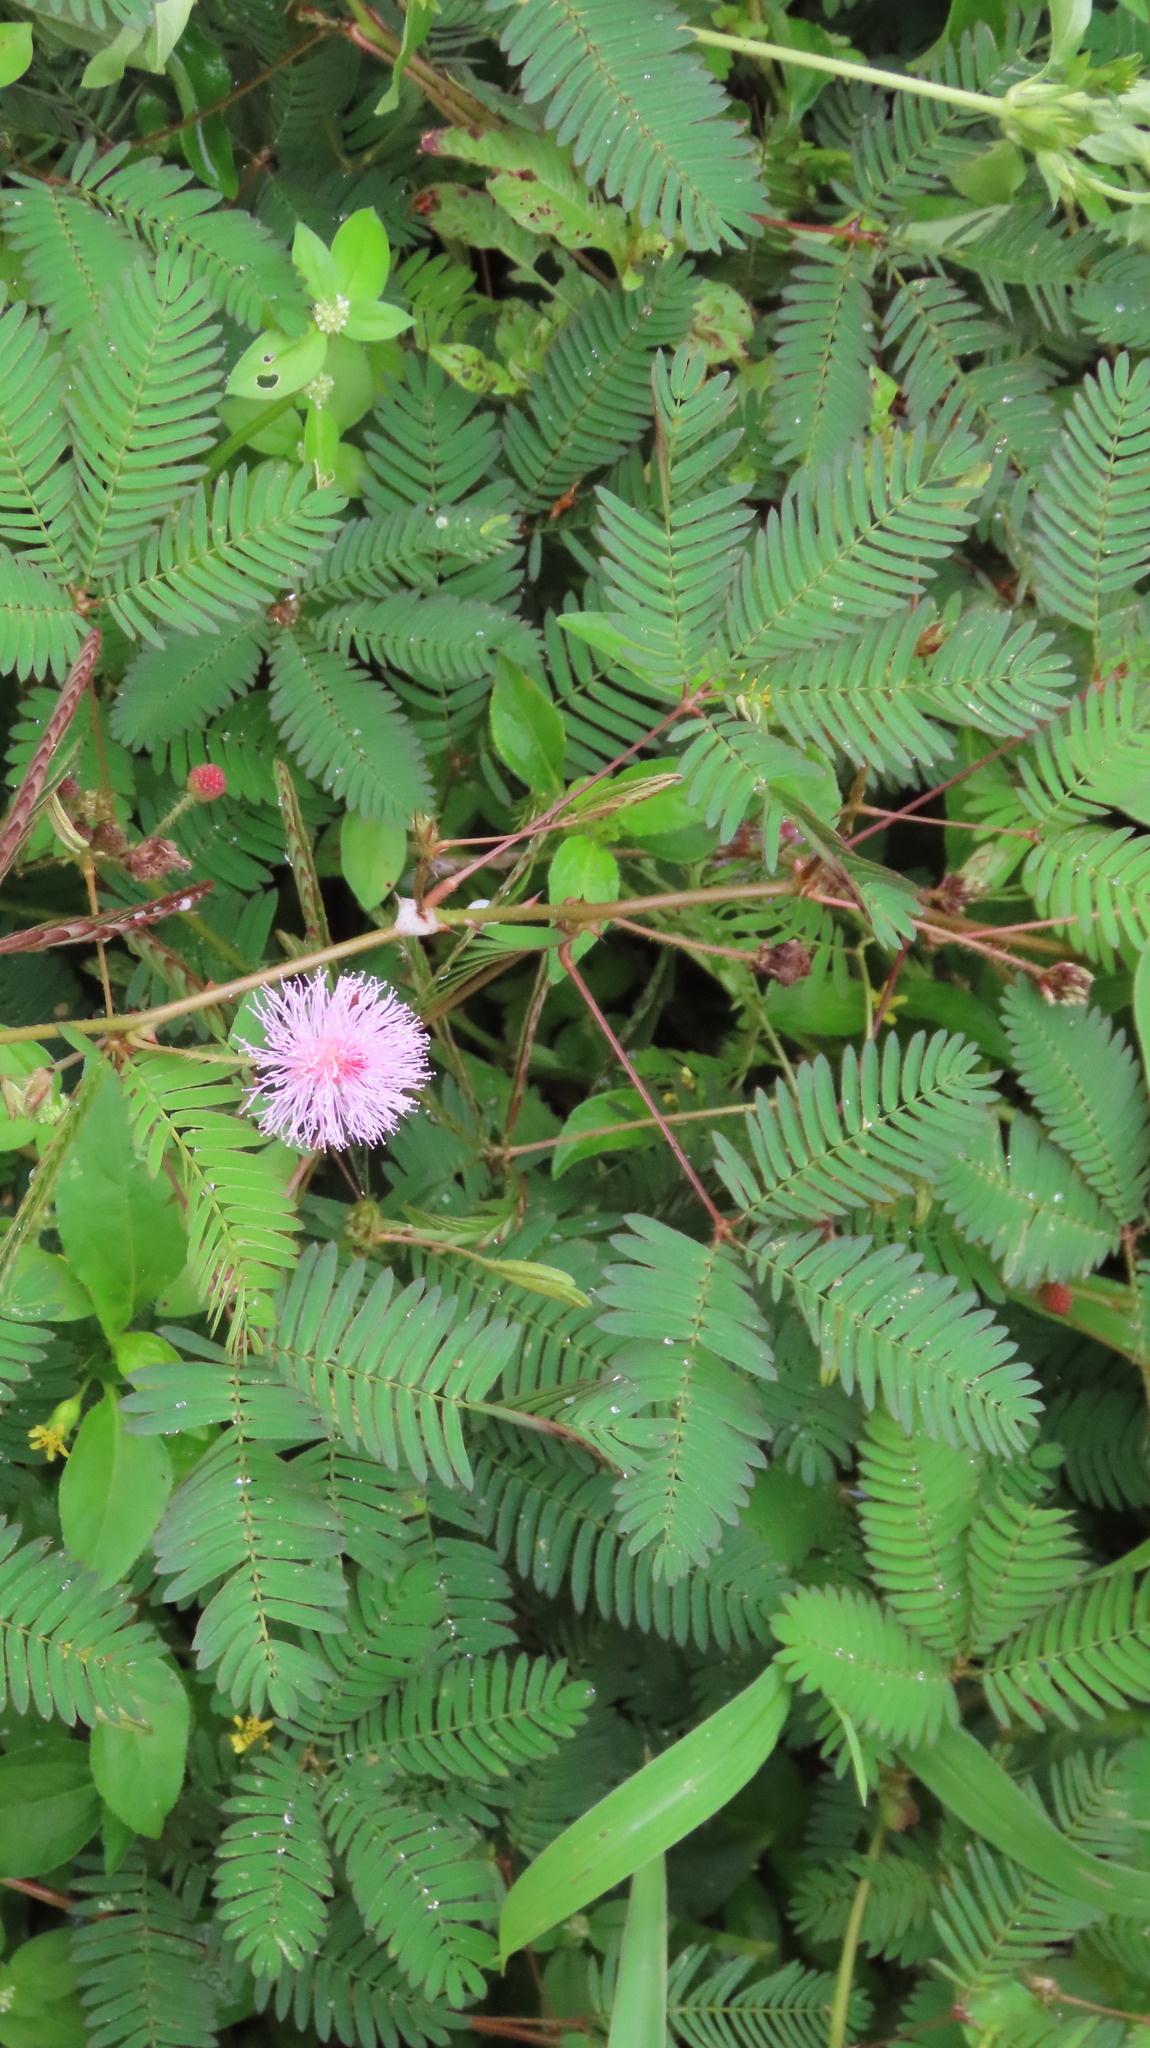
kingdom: Plantae
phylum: Tracheophyta
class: Magnoliopsida
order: Fabales
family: Fabaceae
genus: Mimosa
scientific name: Mimosa pudica
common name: Sensitive plant
